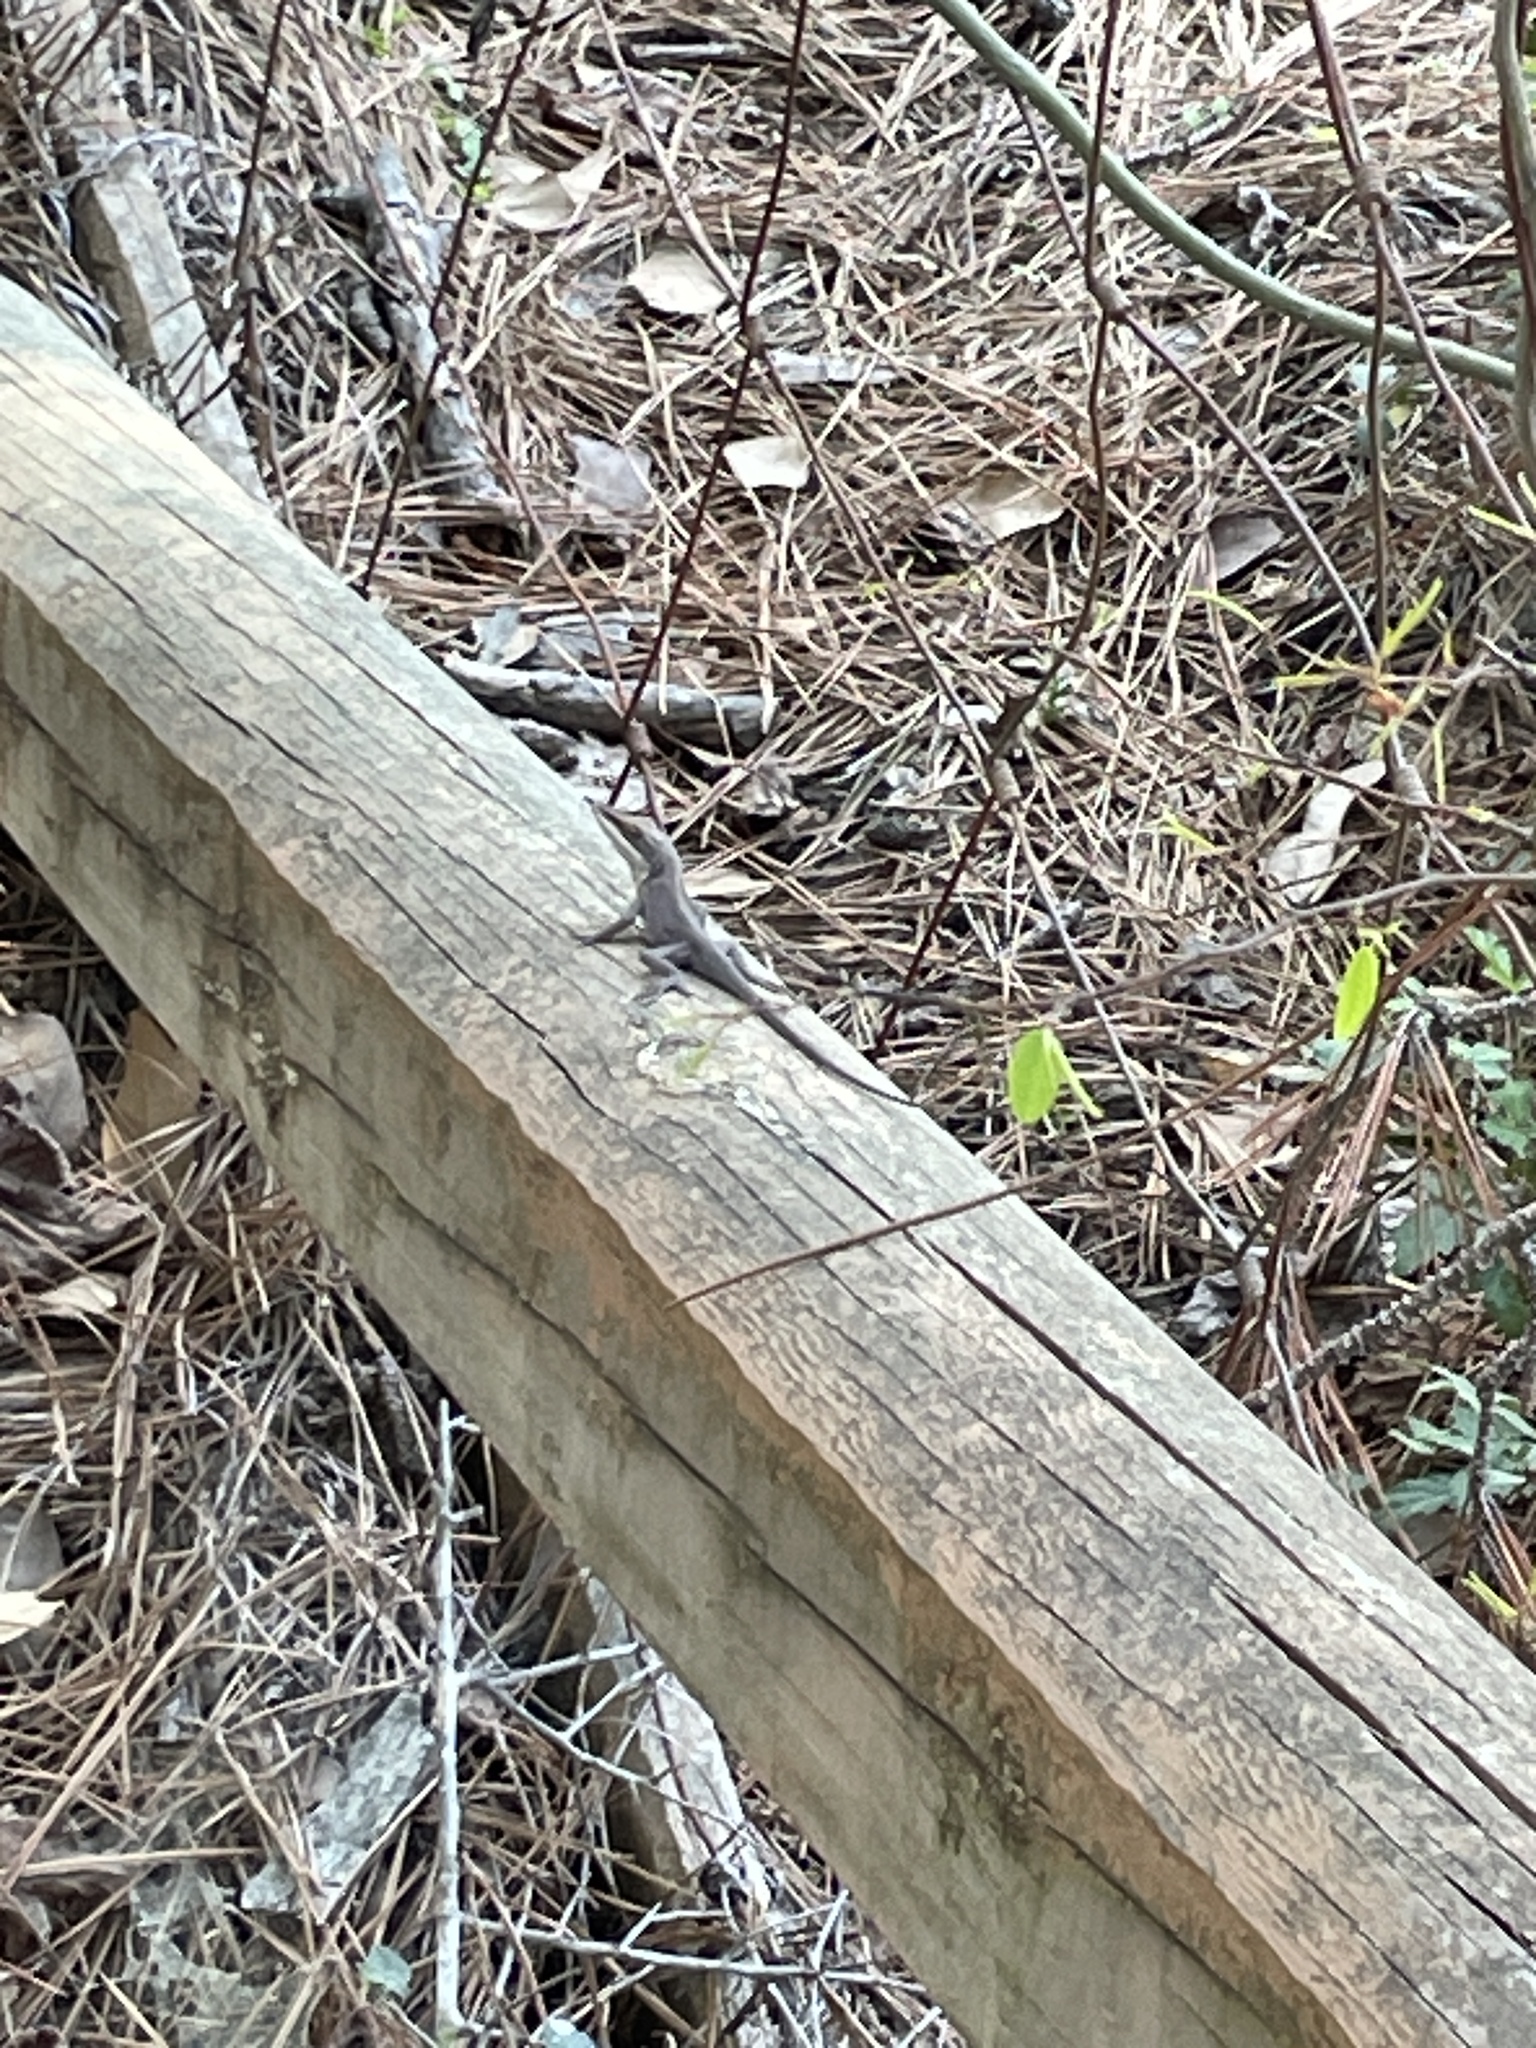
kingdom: Animalia
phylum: Chordata
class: Squamata
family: Dactyloidae
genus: Anolis
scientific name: Anolis carolinensis
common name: Green anole
